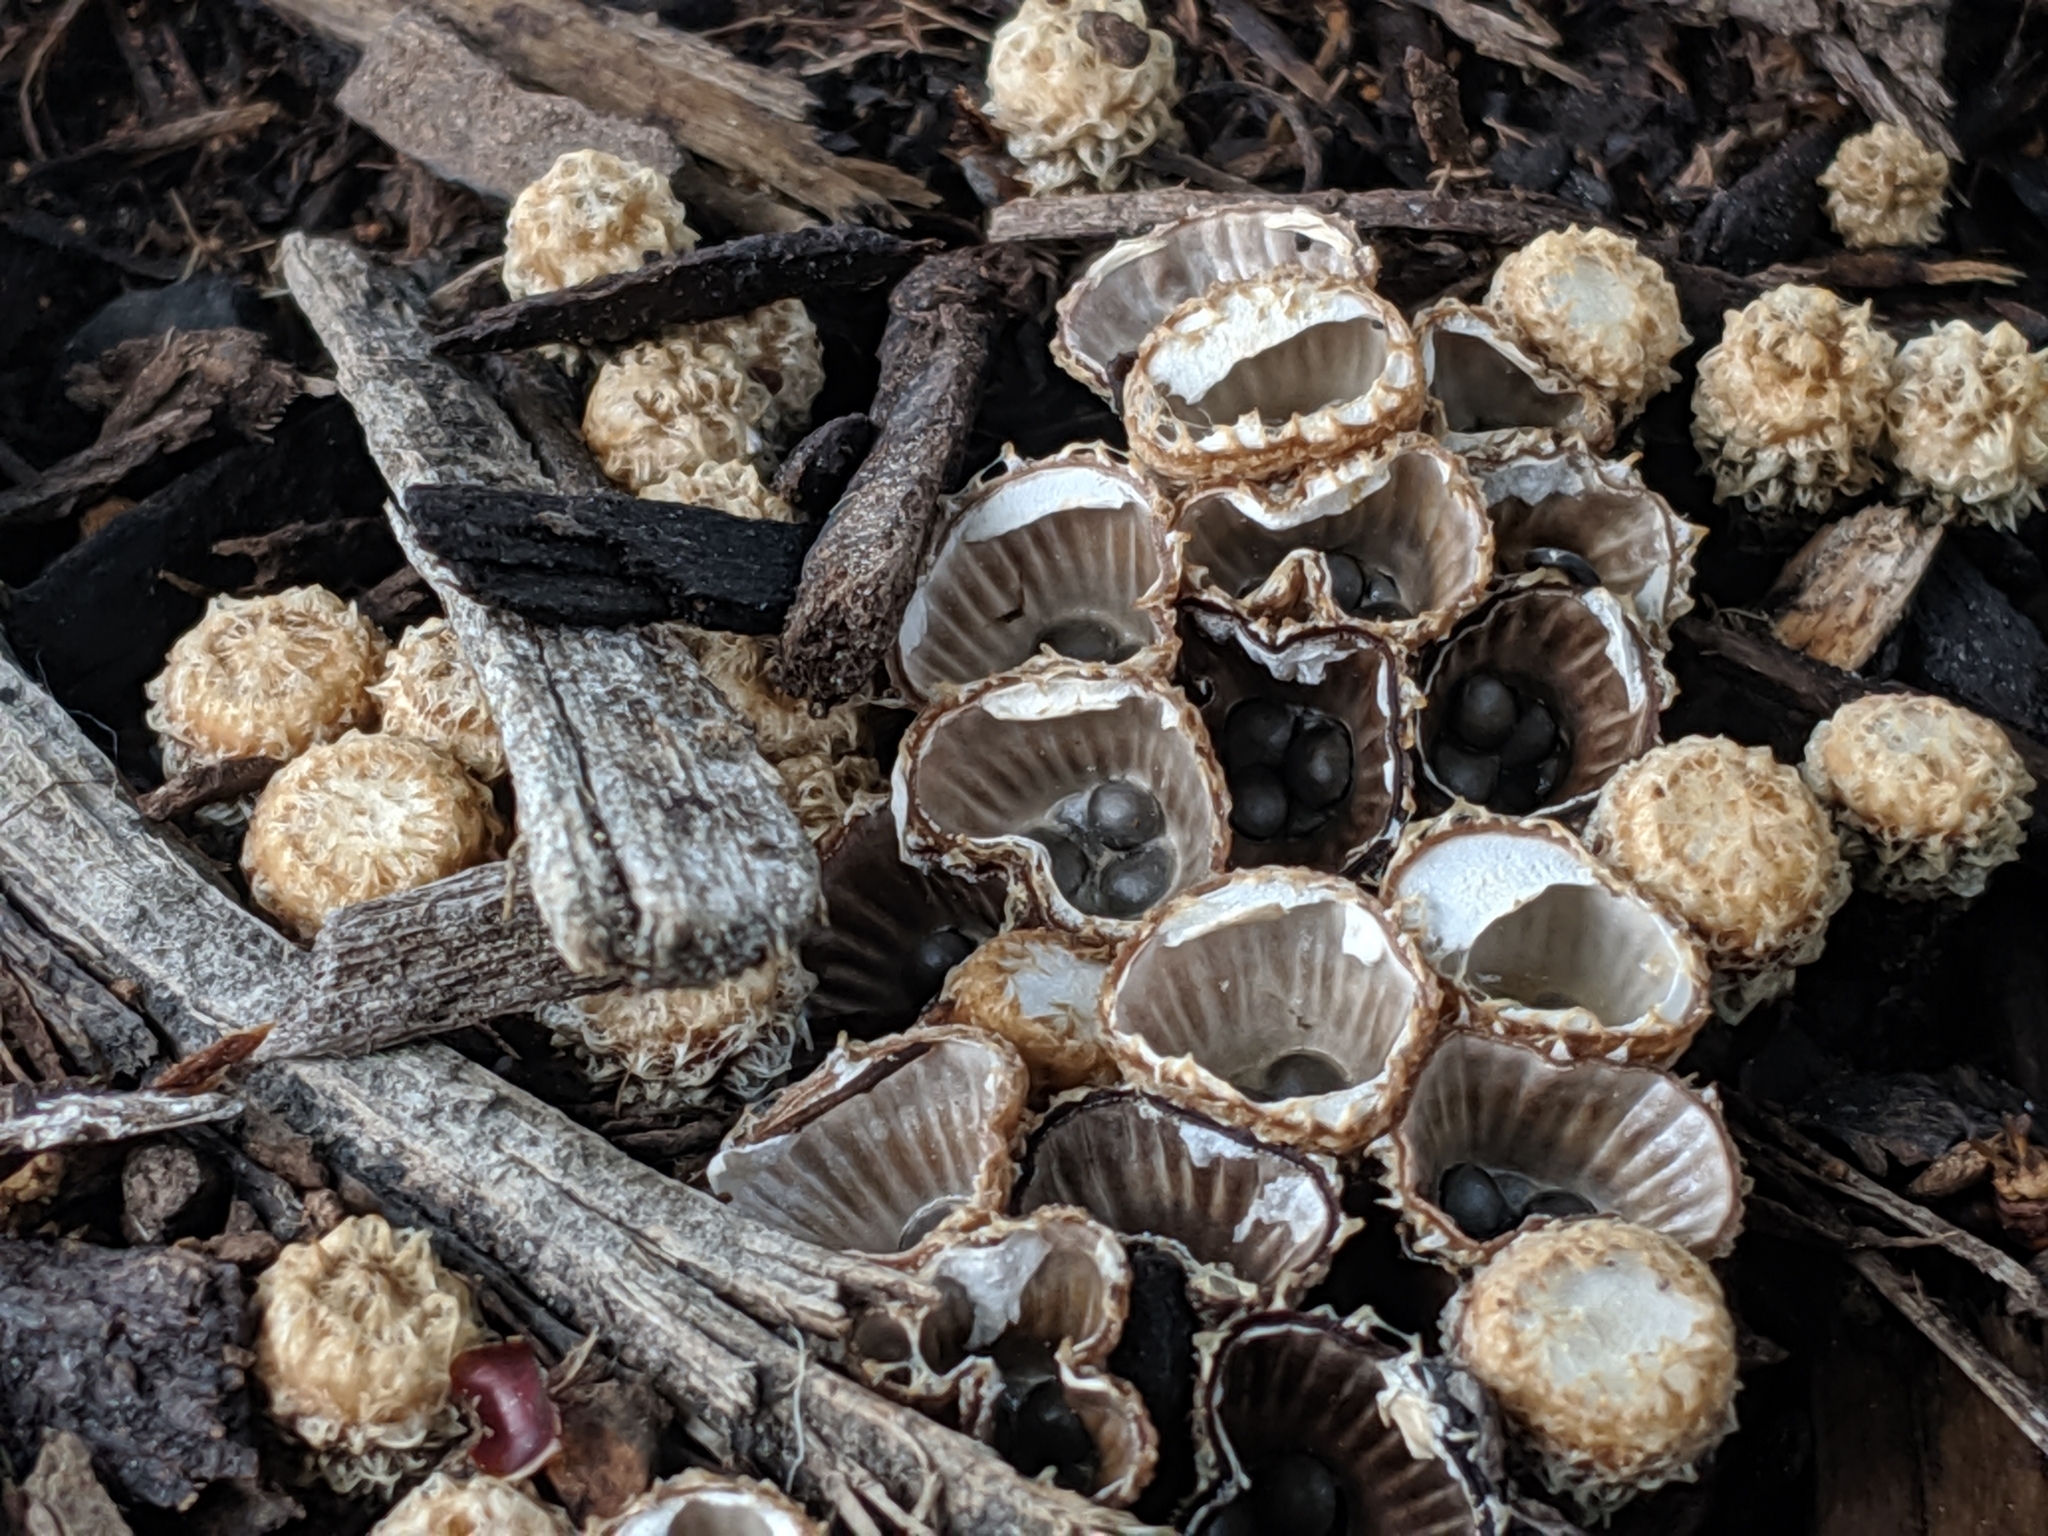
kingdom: Fungi
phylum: Basidiomycota
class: Agaricomycetes
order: Agaricales
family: Agaricaceae
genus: Cyathus
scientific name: Cyathus striatus
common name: Fluted bird's nest
